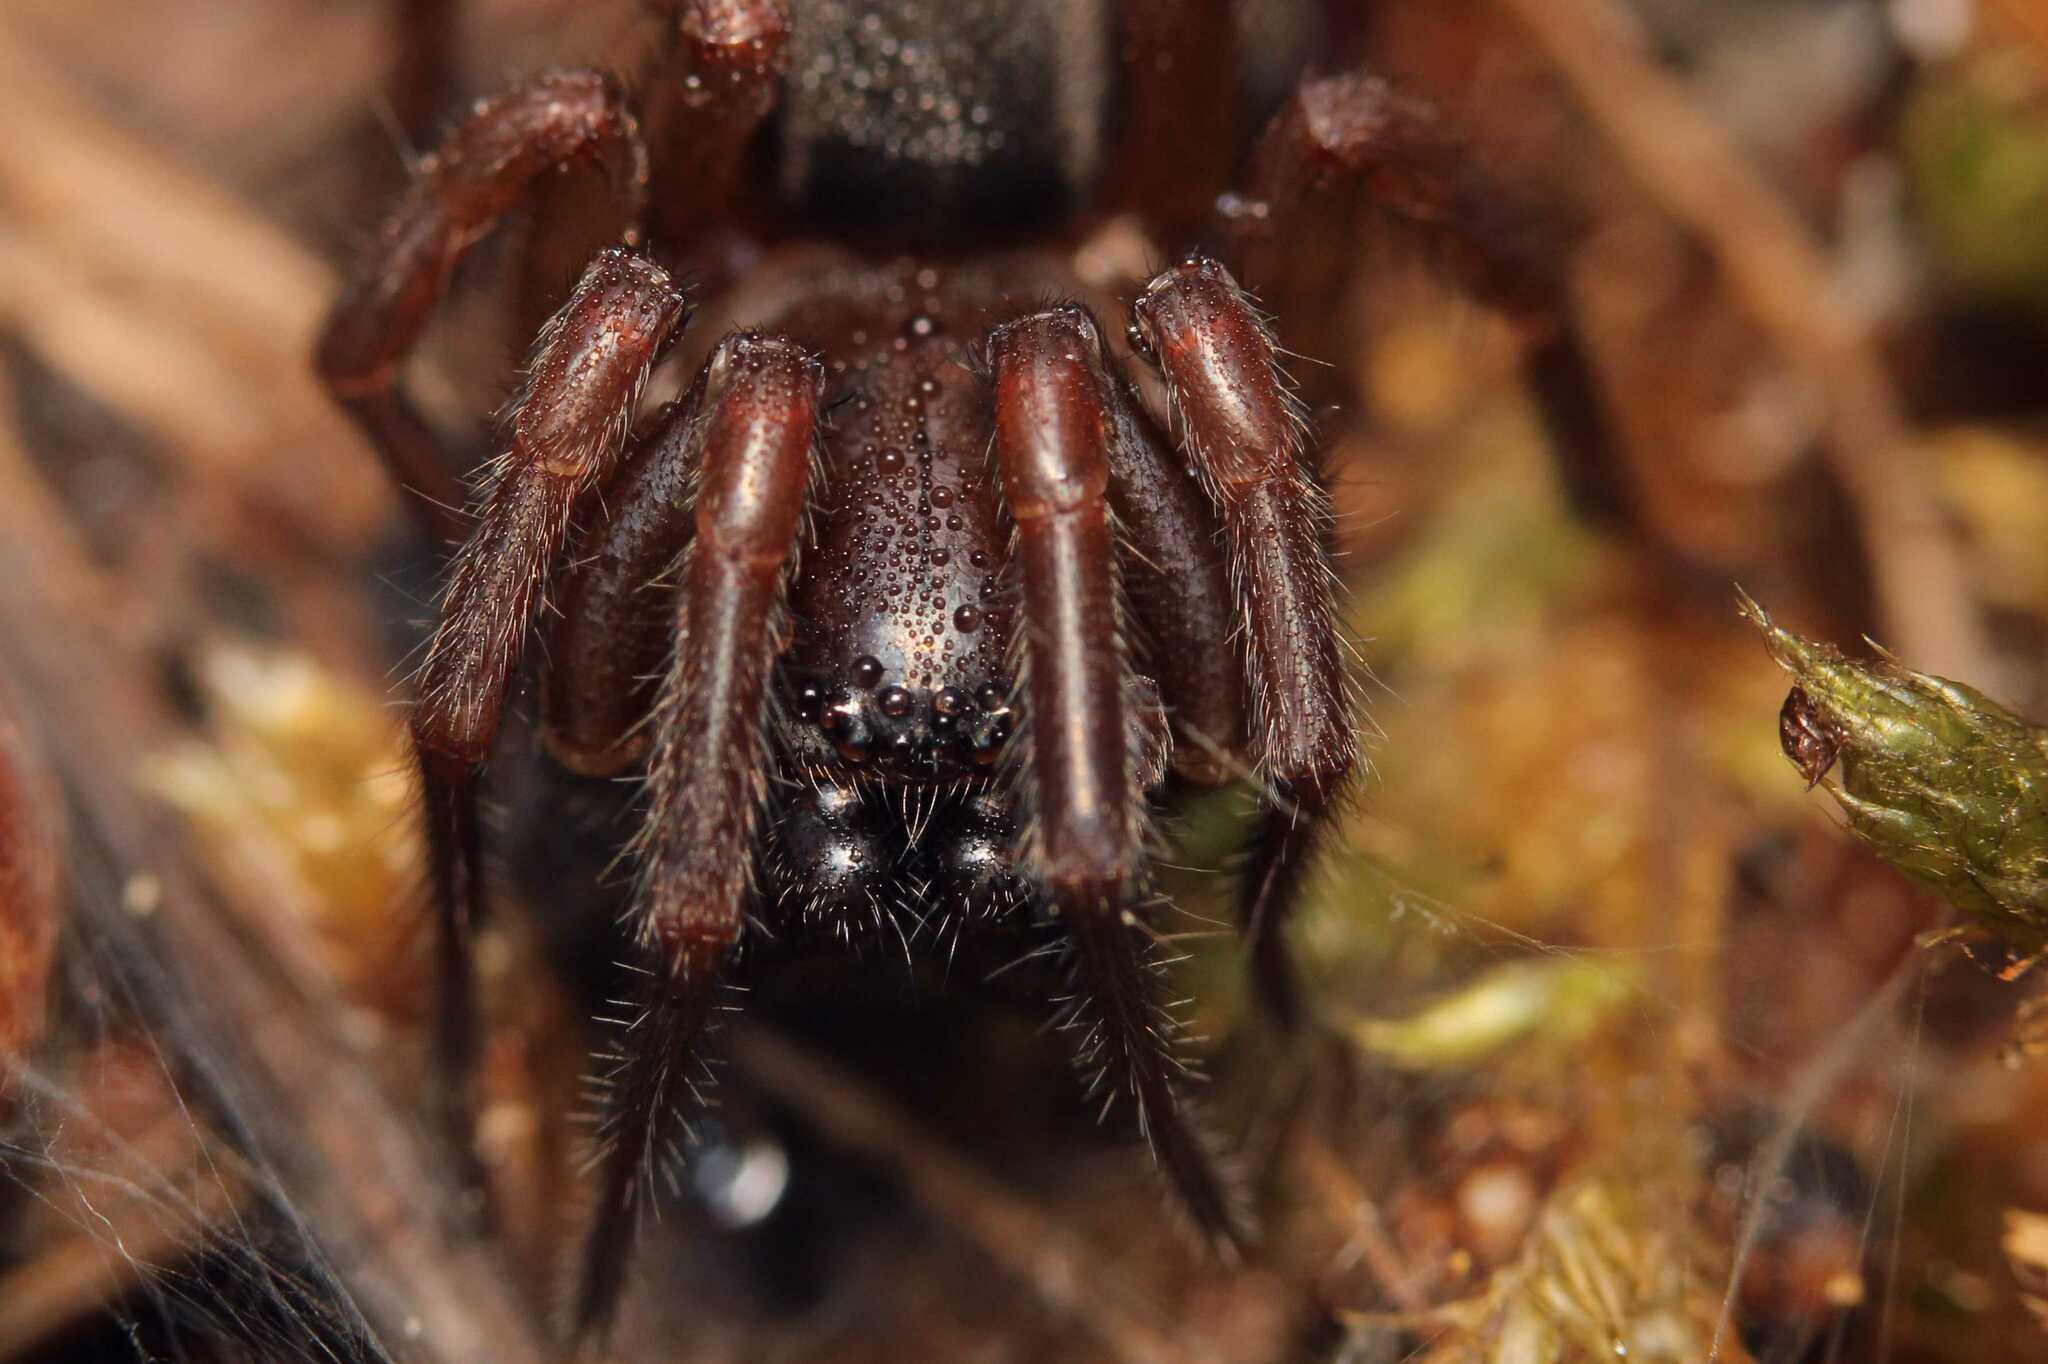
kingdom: Animalia
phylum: Arthropoda
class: Arachnida
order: Araneae
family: Agelenidae
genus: Coelotes
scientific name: Coelotes
